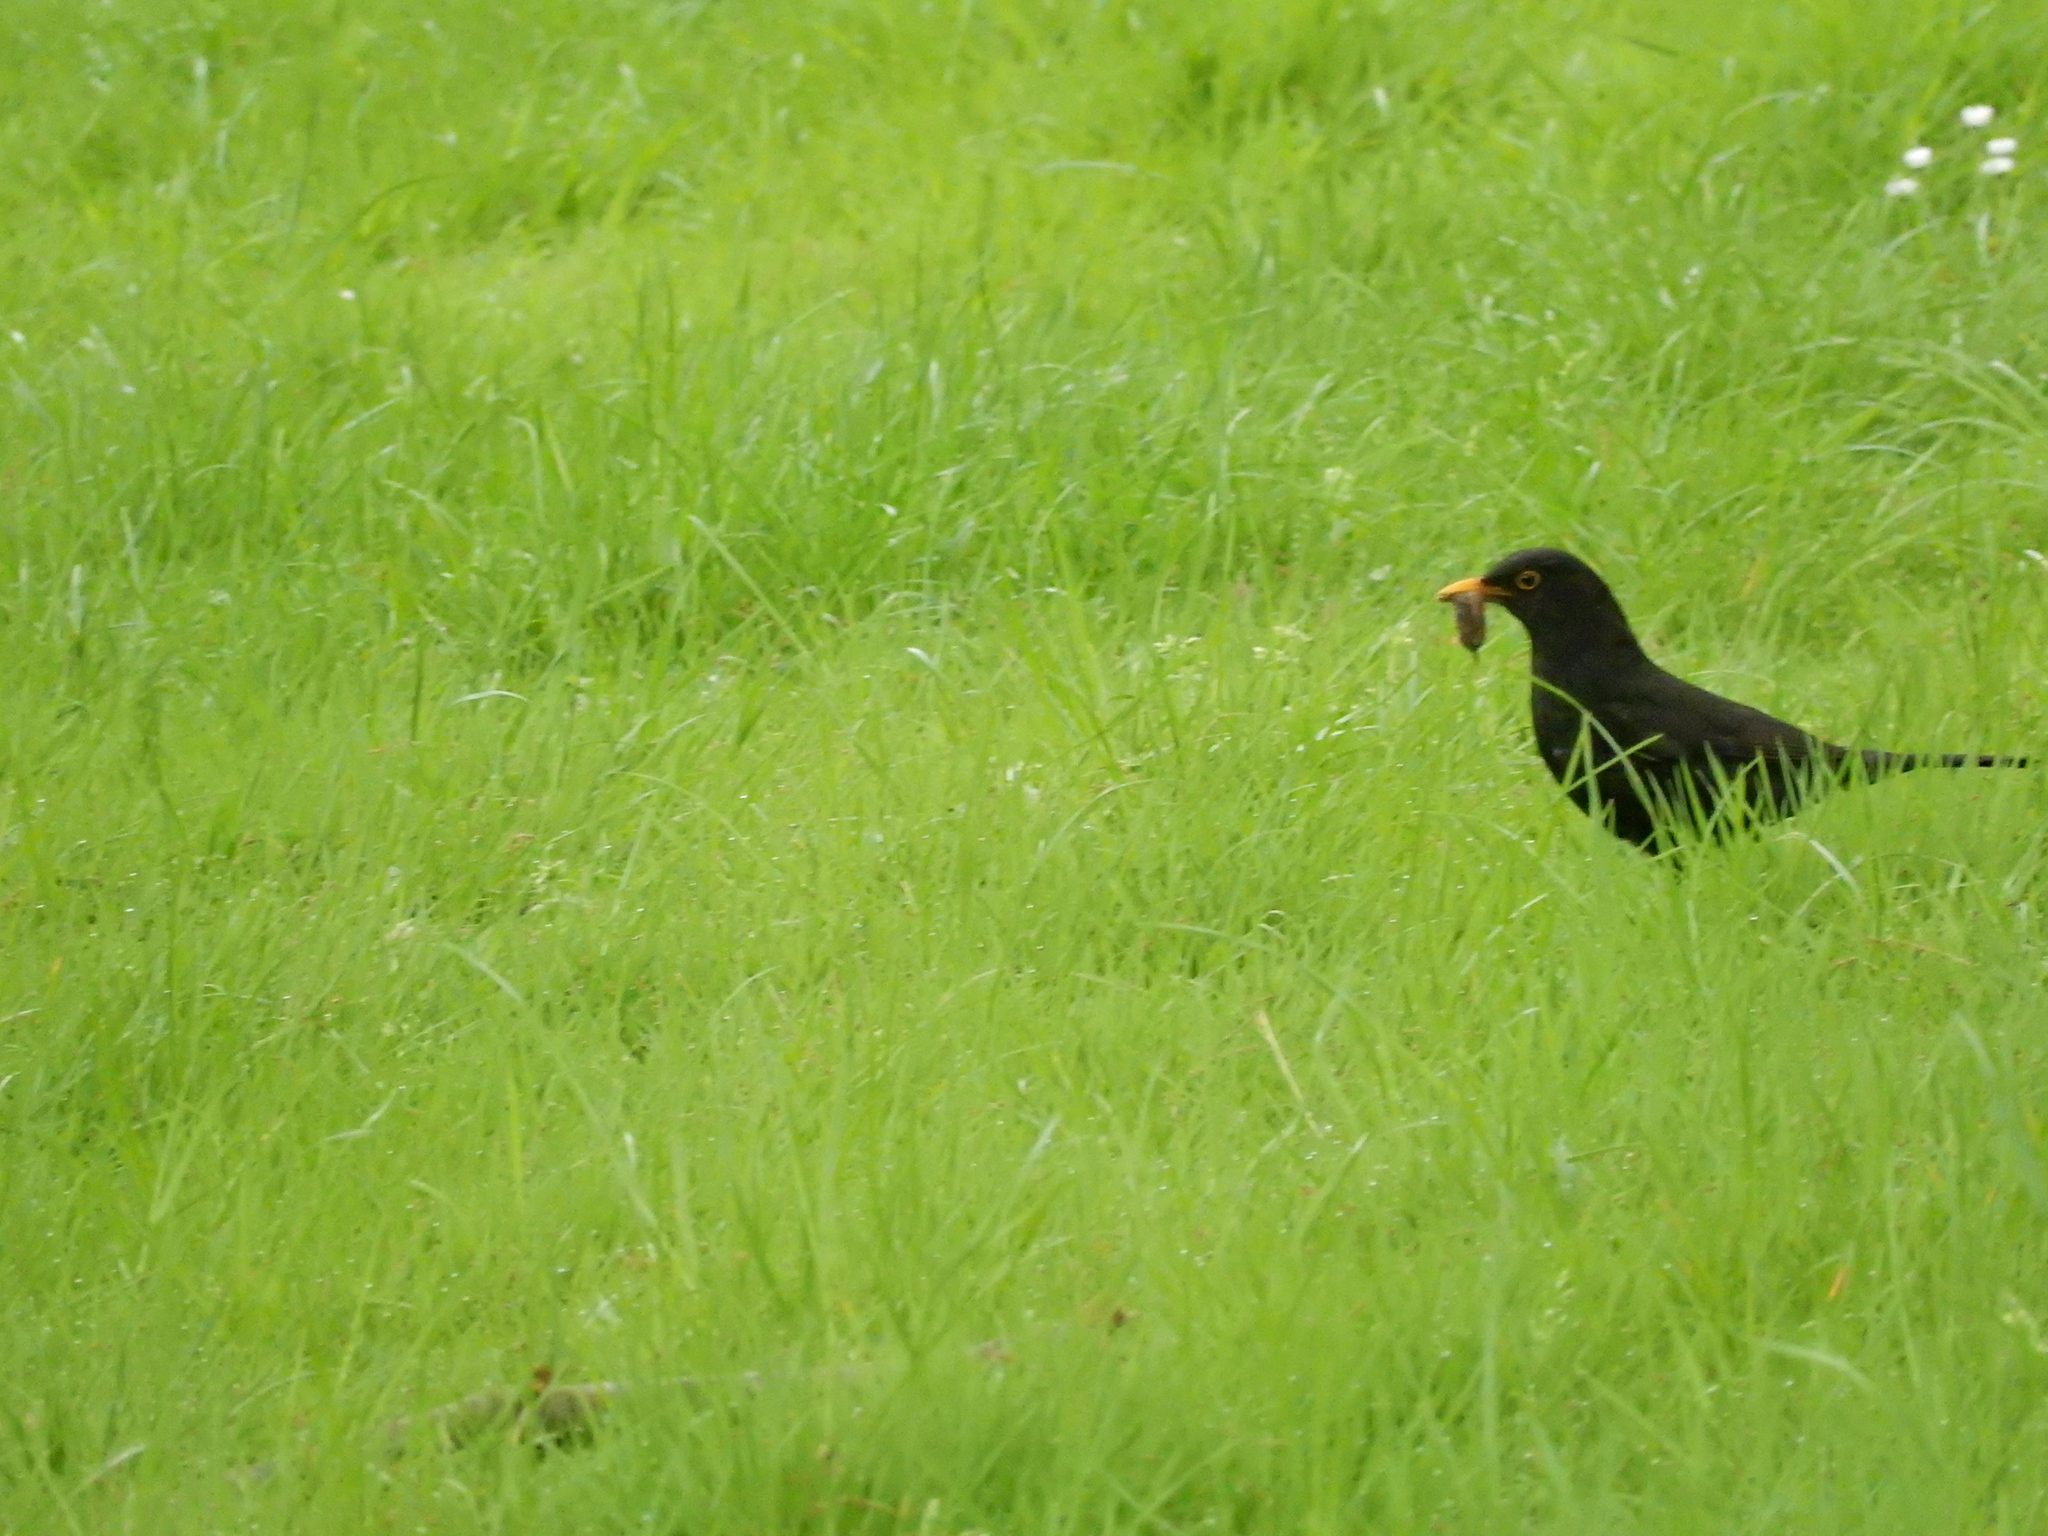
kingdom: Animalia
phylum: Chordata
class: Aves
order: Passeriformes
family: Turdidae
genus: Turdus
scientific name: Turdus merula
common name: Common blackbird
